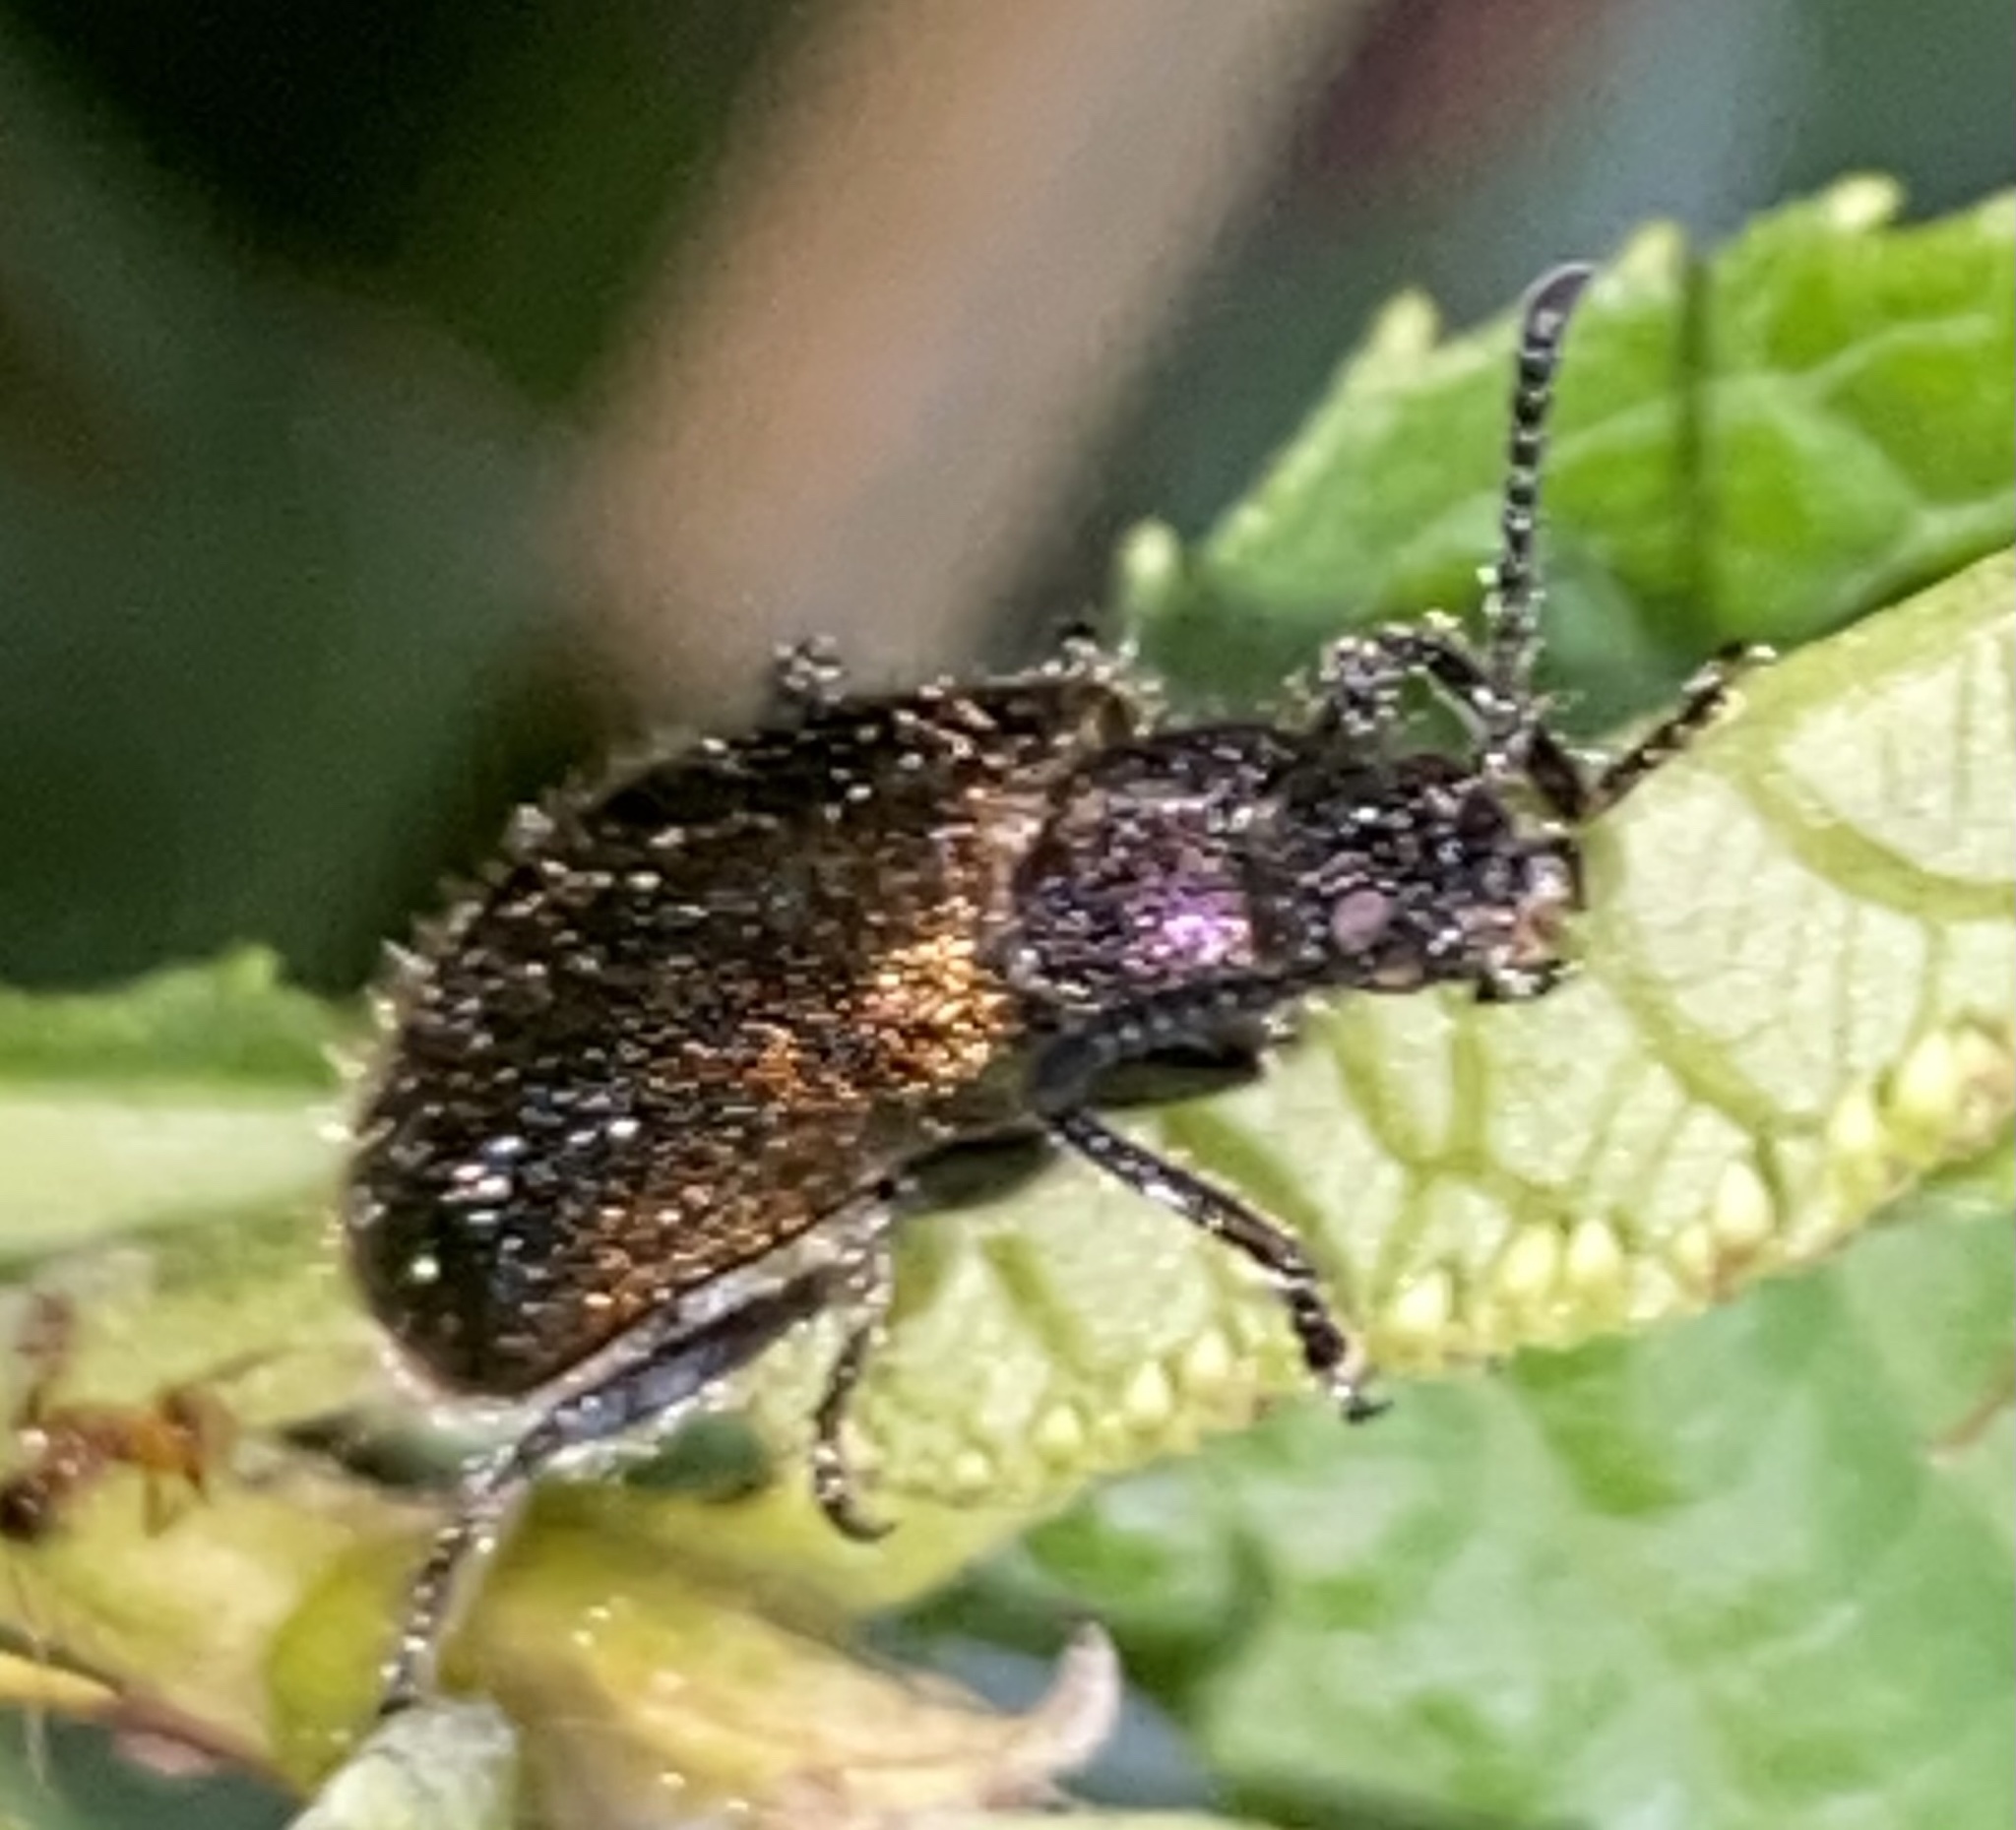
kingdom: Animalia
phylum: Arthropoda
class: Insecta
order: Coleoptera
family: Tenebrionidae
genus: Lagria
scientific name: Lagria villosa
